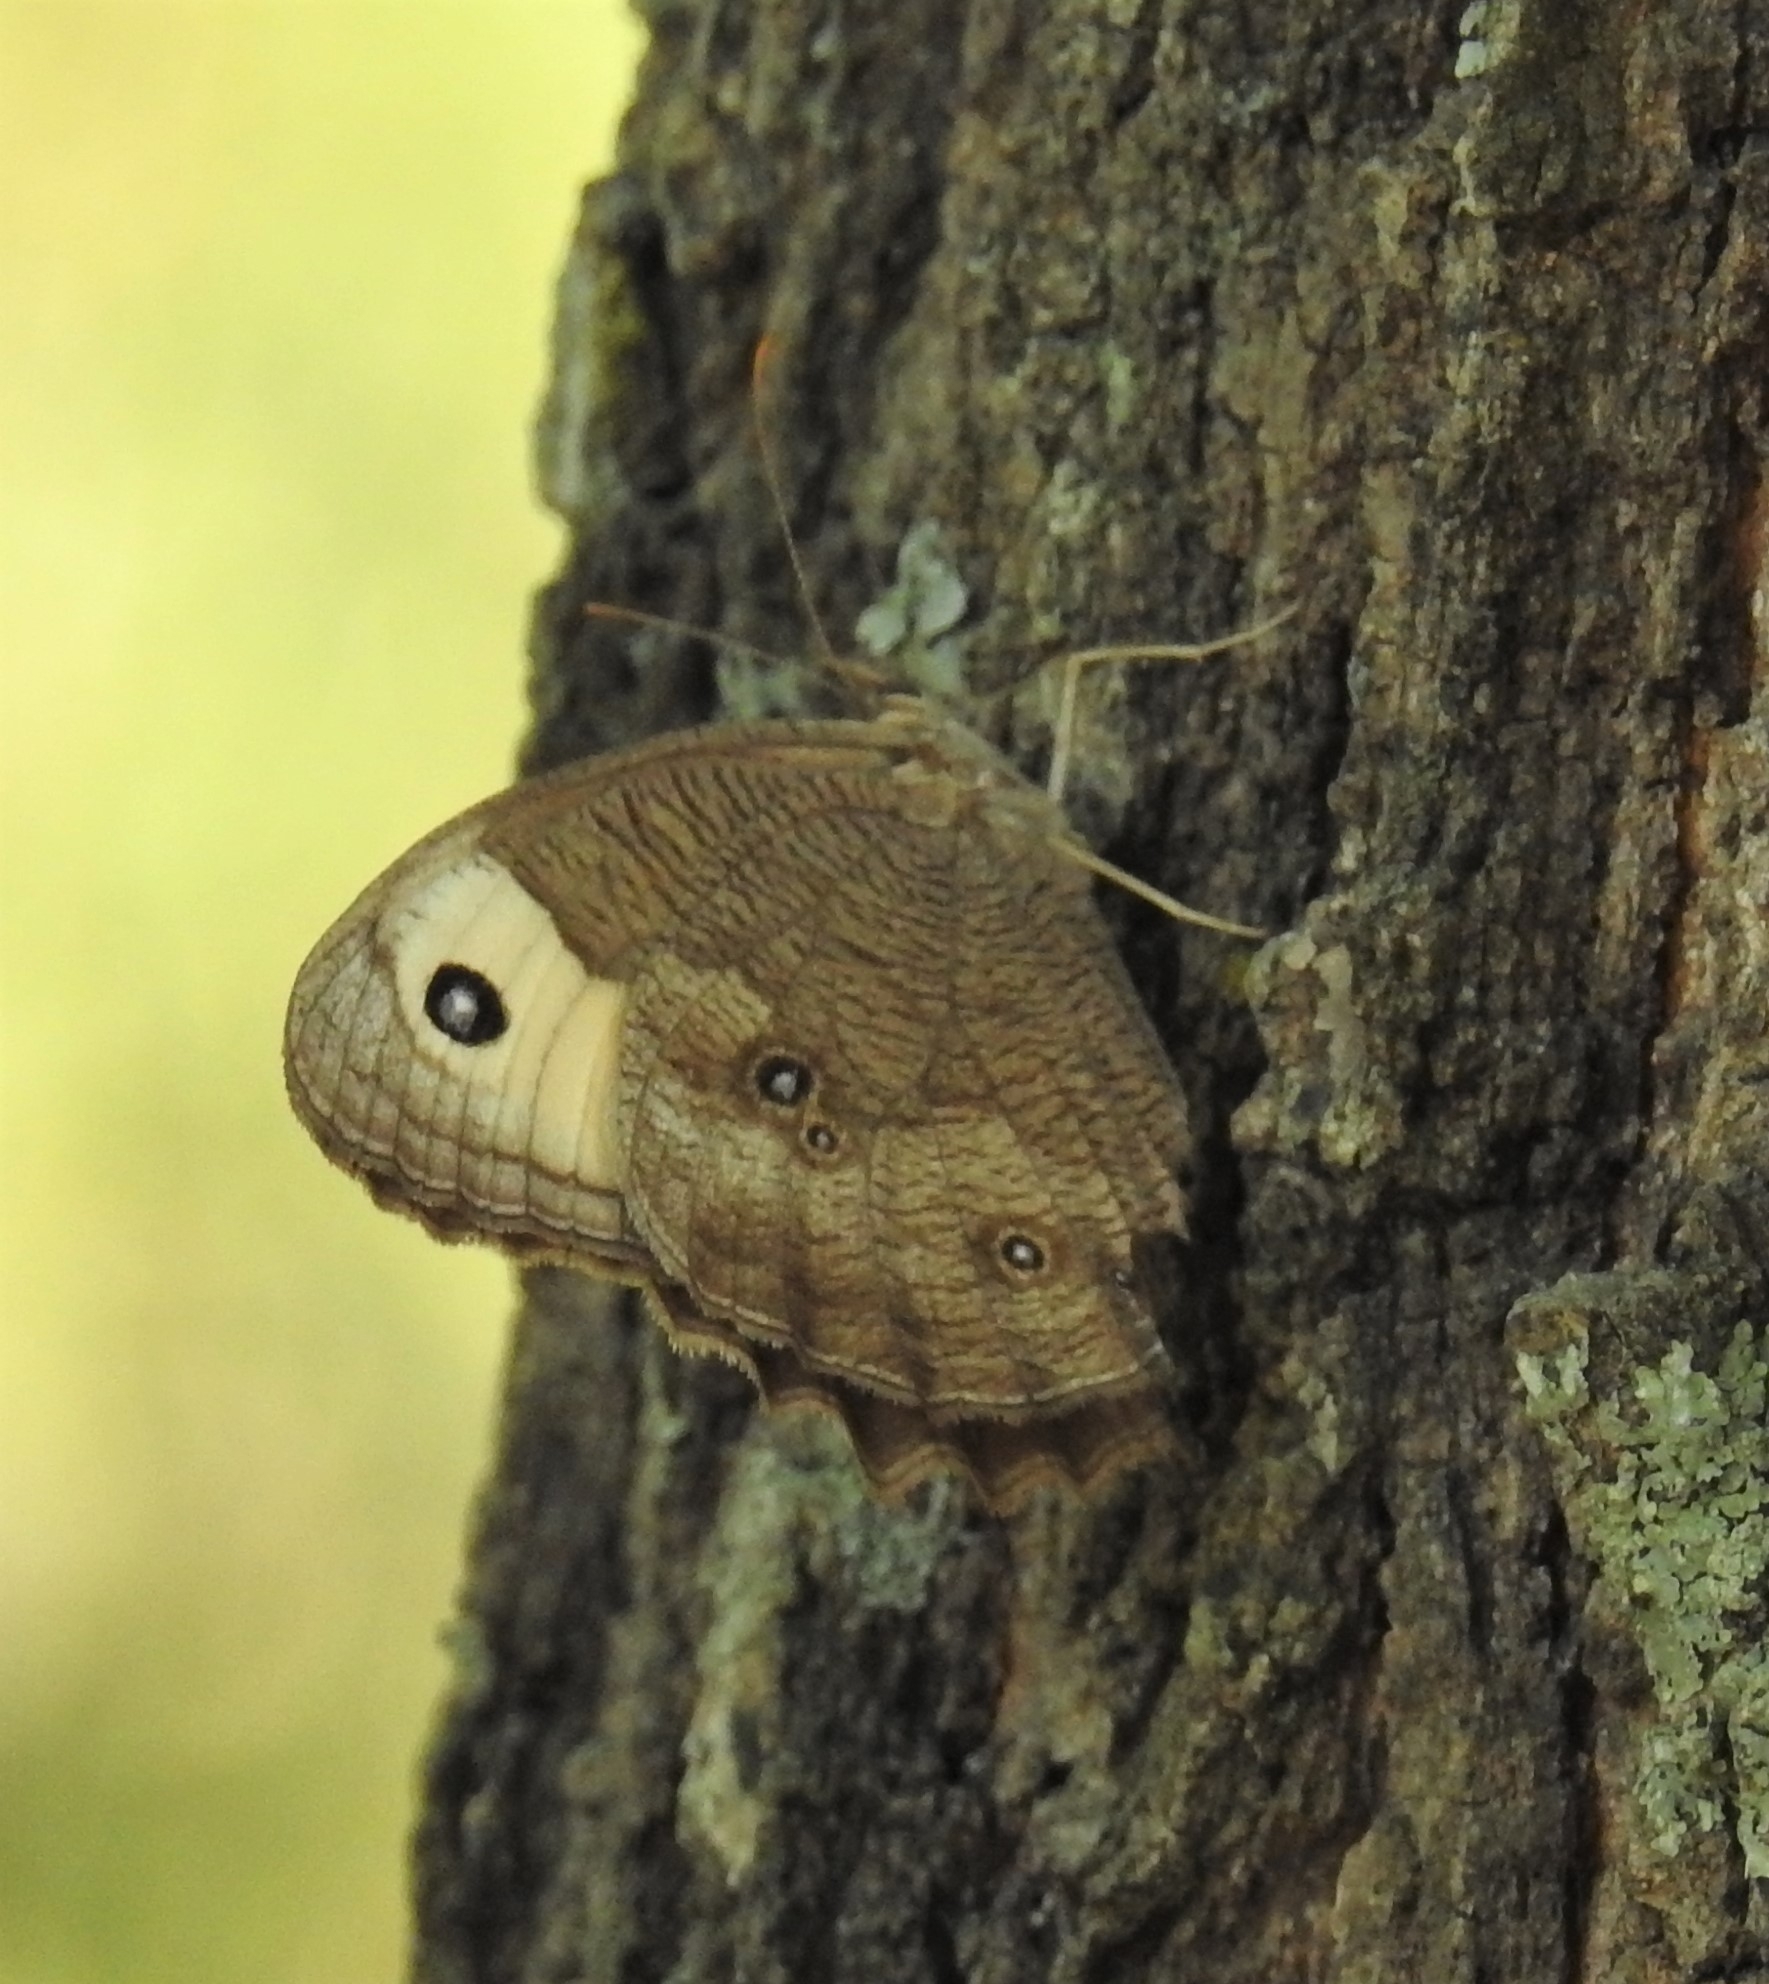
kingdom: Animalia
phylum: Arthropoda
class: Insecta
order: Lepidoptera
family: Nymphalidae
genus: Cercyonis
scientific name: Cercyonis pegala
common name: Common wood-nymph
